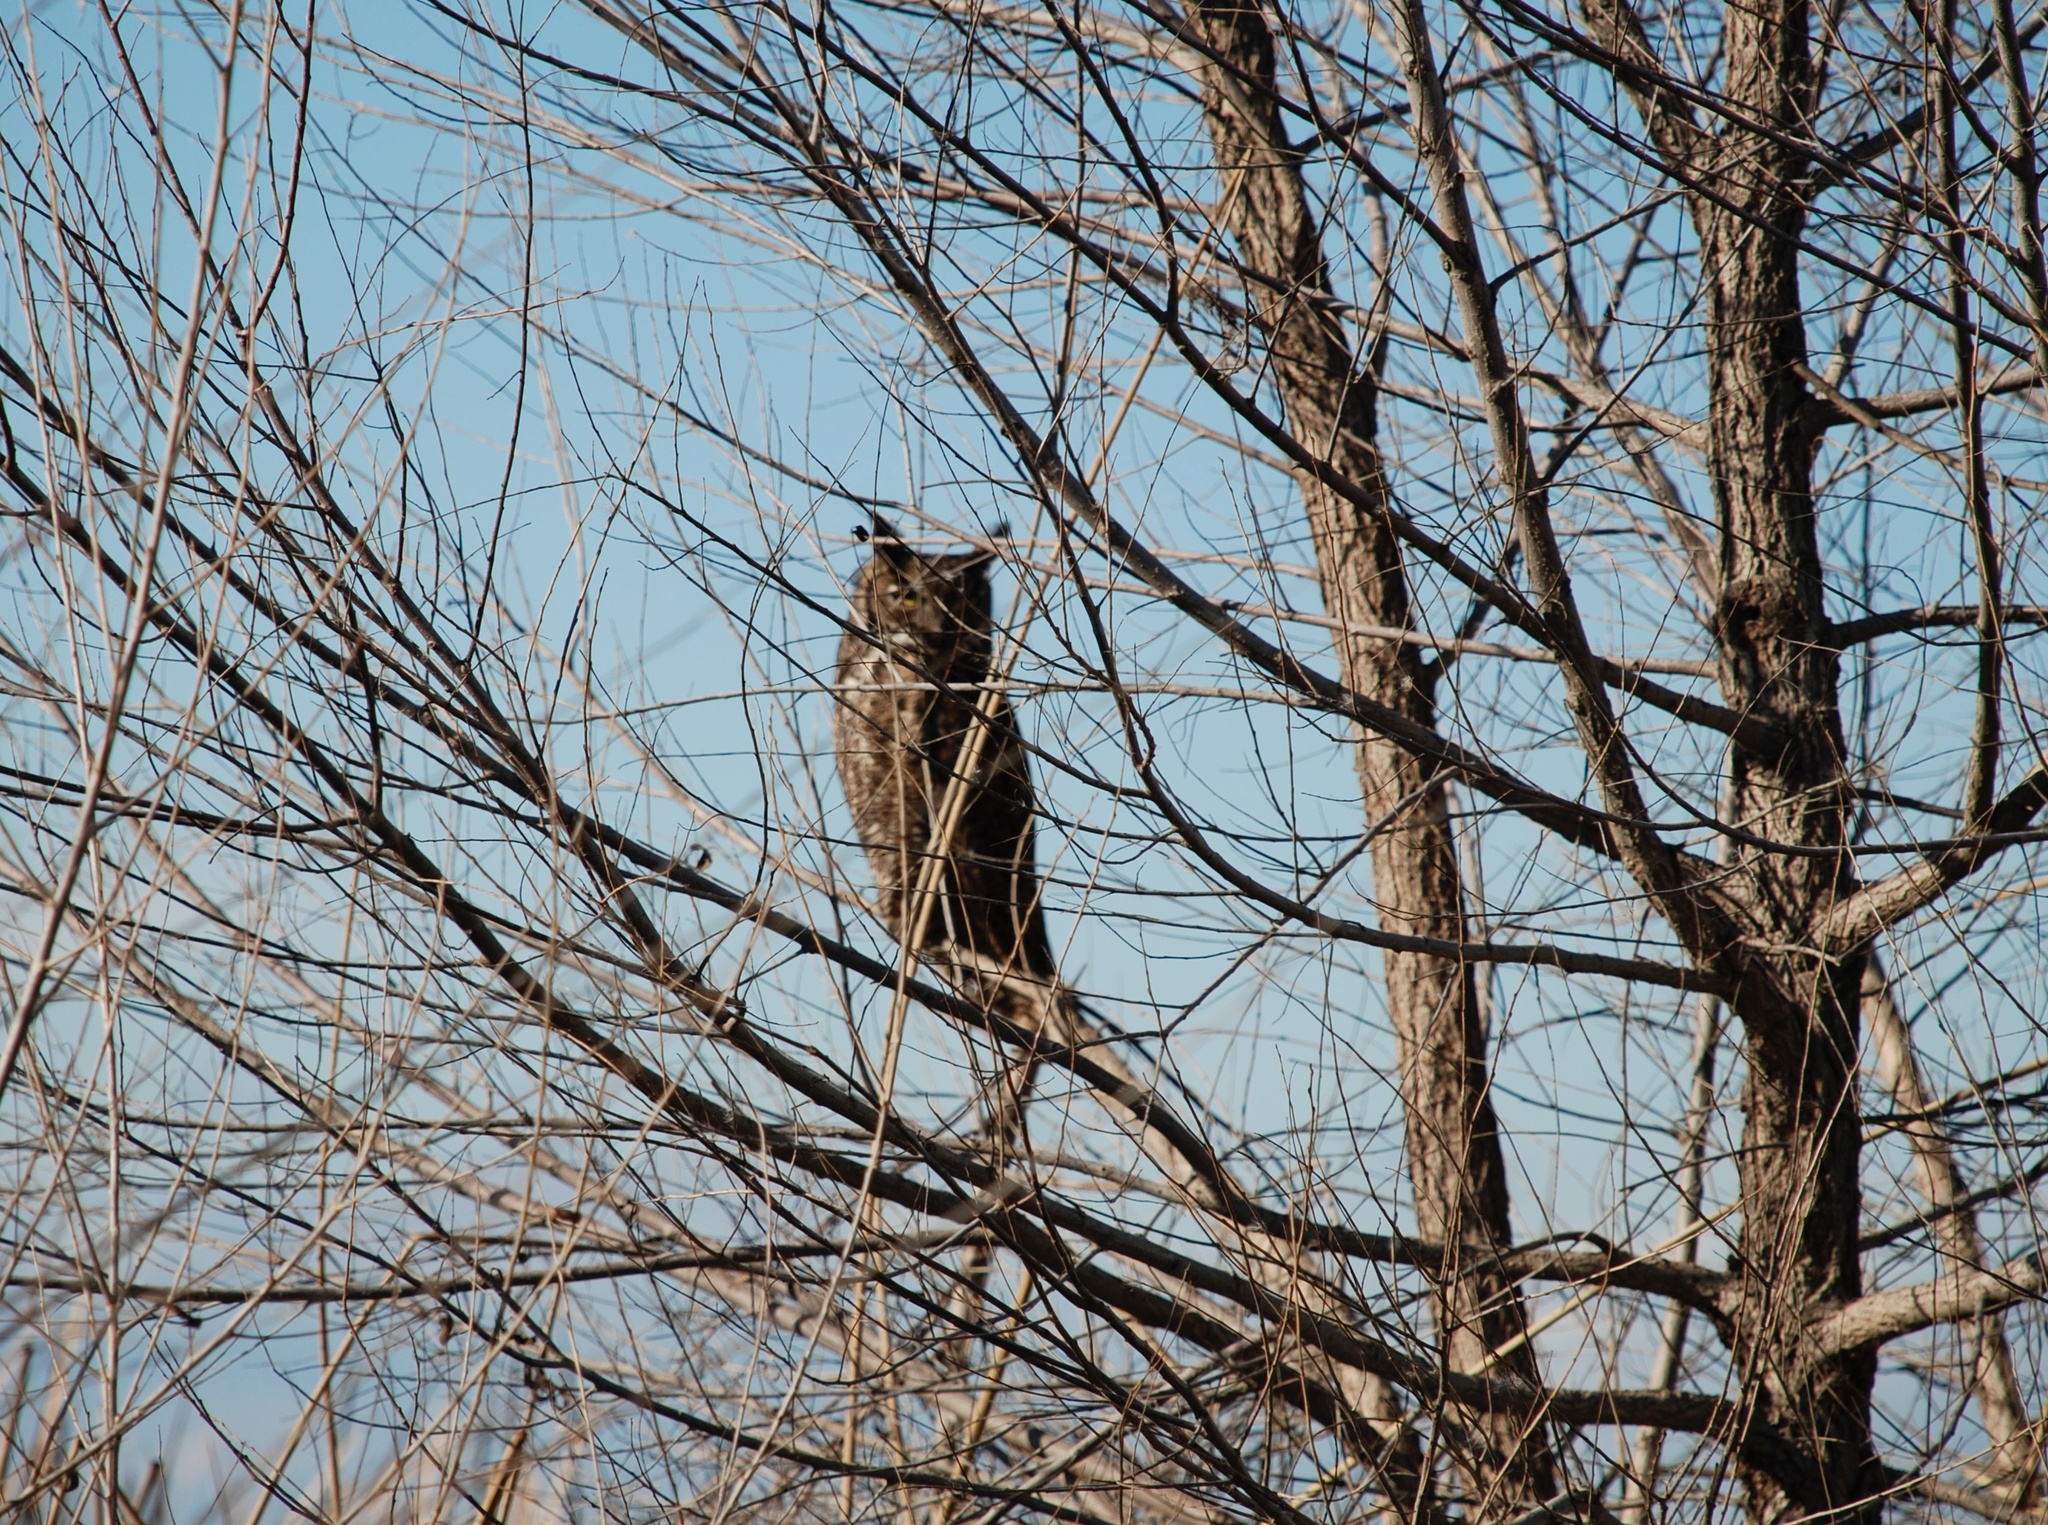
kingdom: Animalia
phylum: Chordata
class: Aves
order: Strigiformes
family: Strigidae
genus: Bubo
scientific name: Bubo virginianus
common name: Great horned owl
